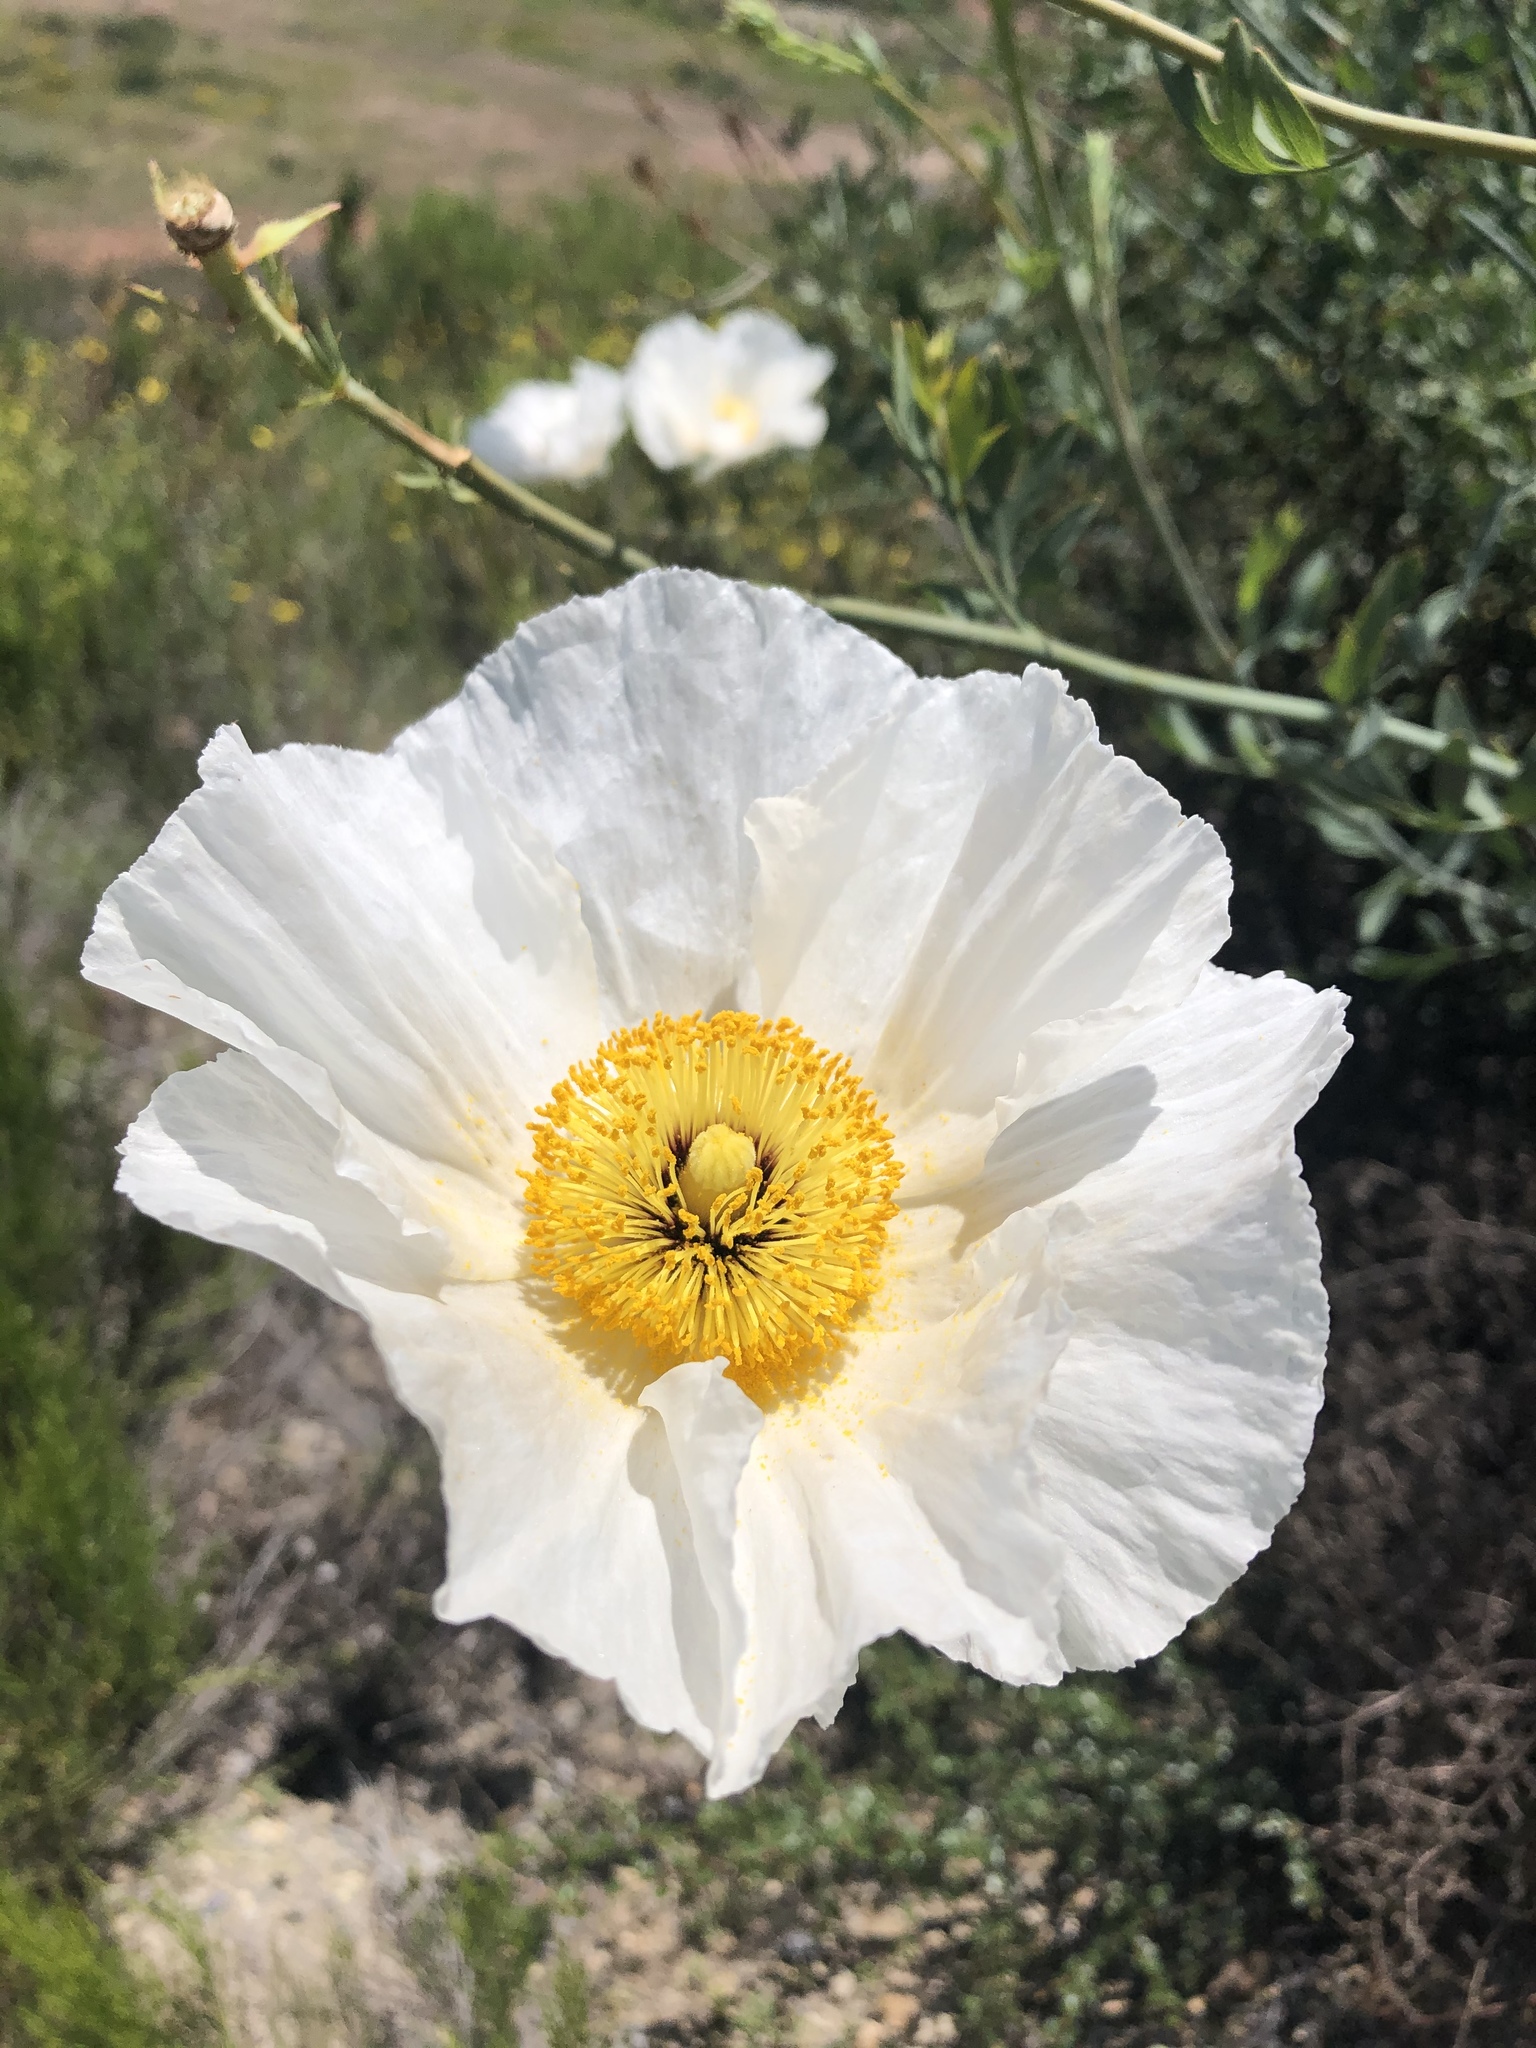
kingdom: Plantae
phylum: Tracheophyta
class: Magnoliopsida
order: Ranunculales
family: Papaveraceae
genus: Romneya
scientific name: Romneya trichocalyx
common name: Hairy matilija-poppy
